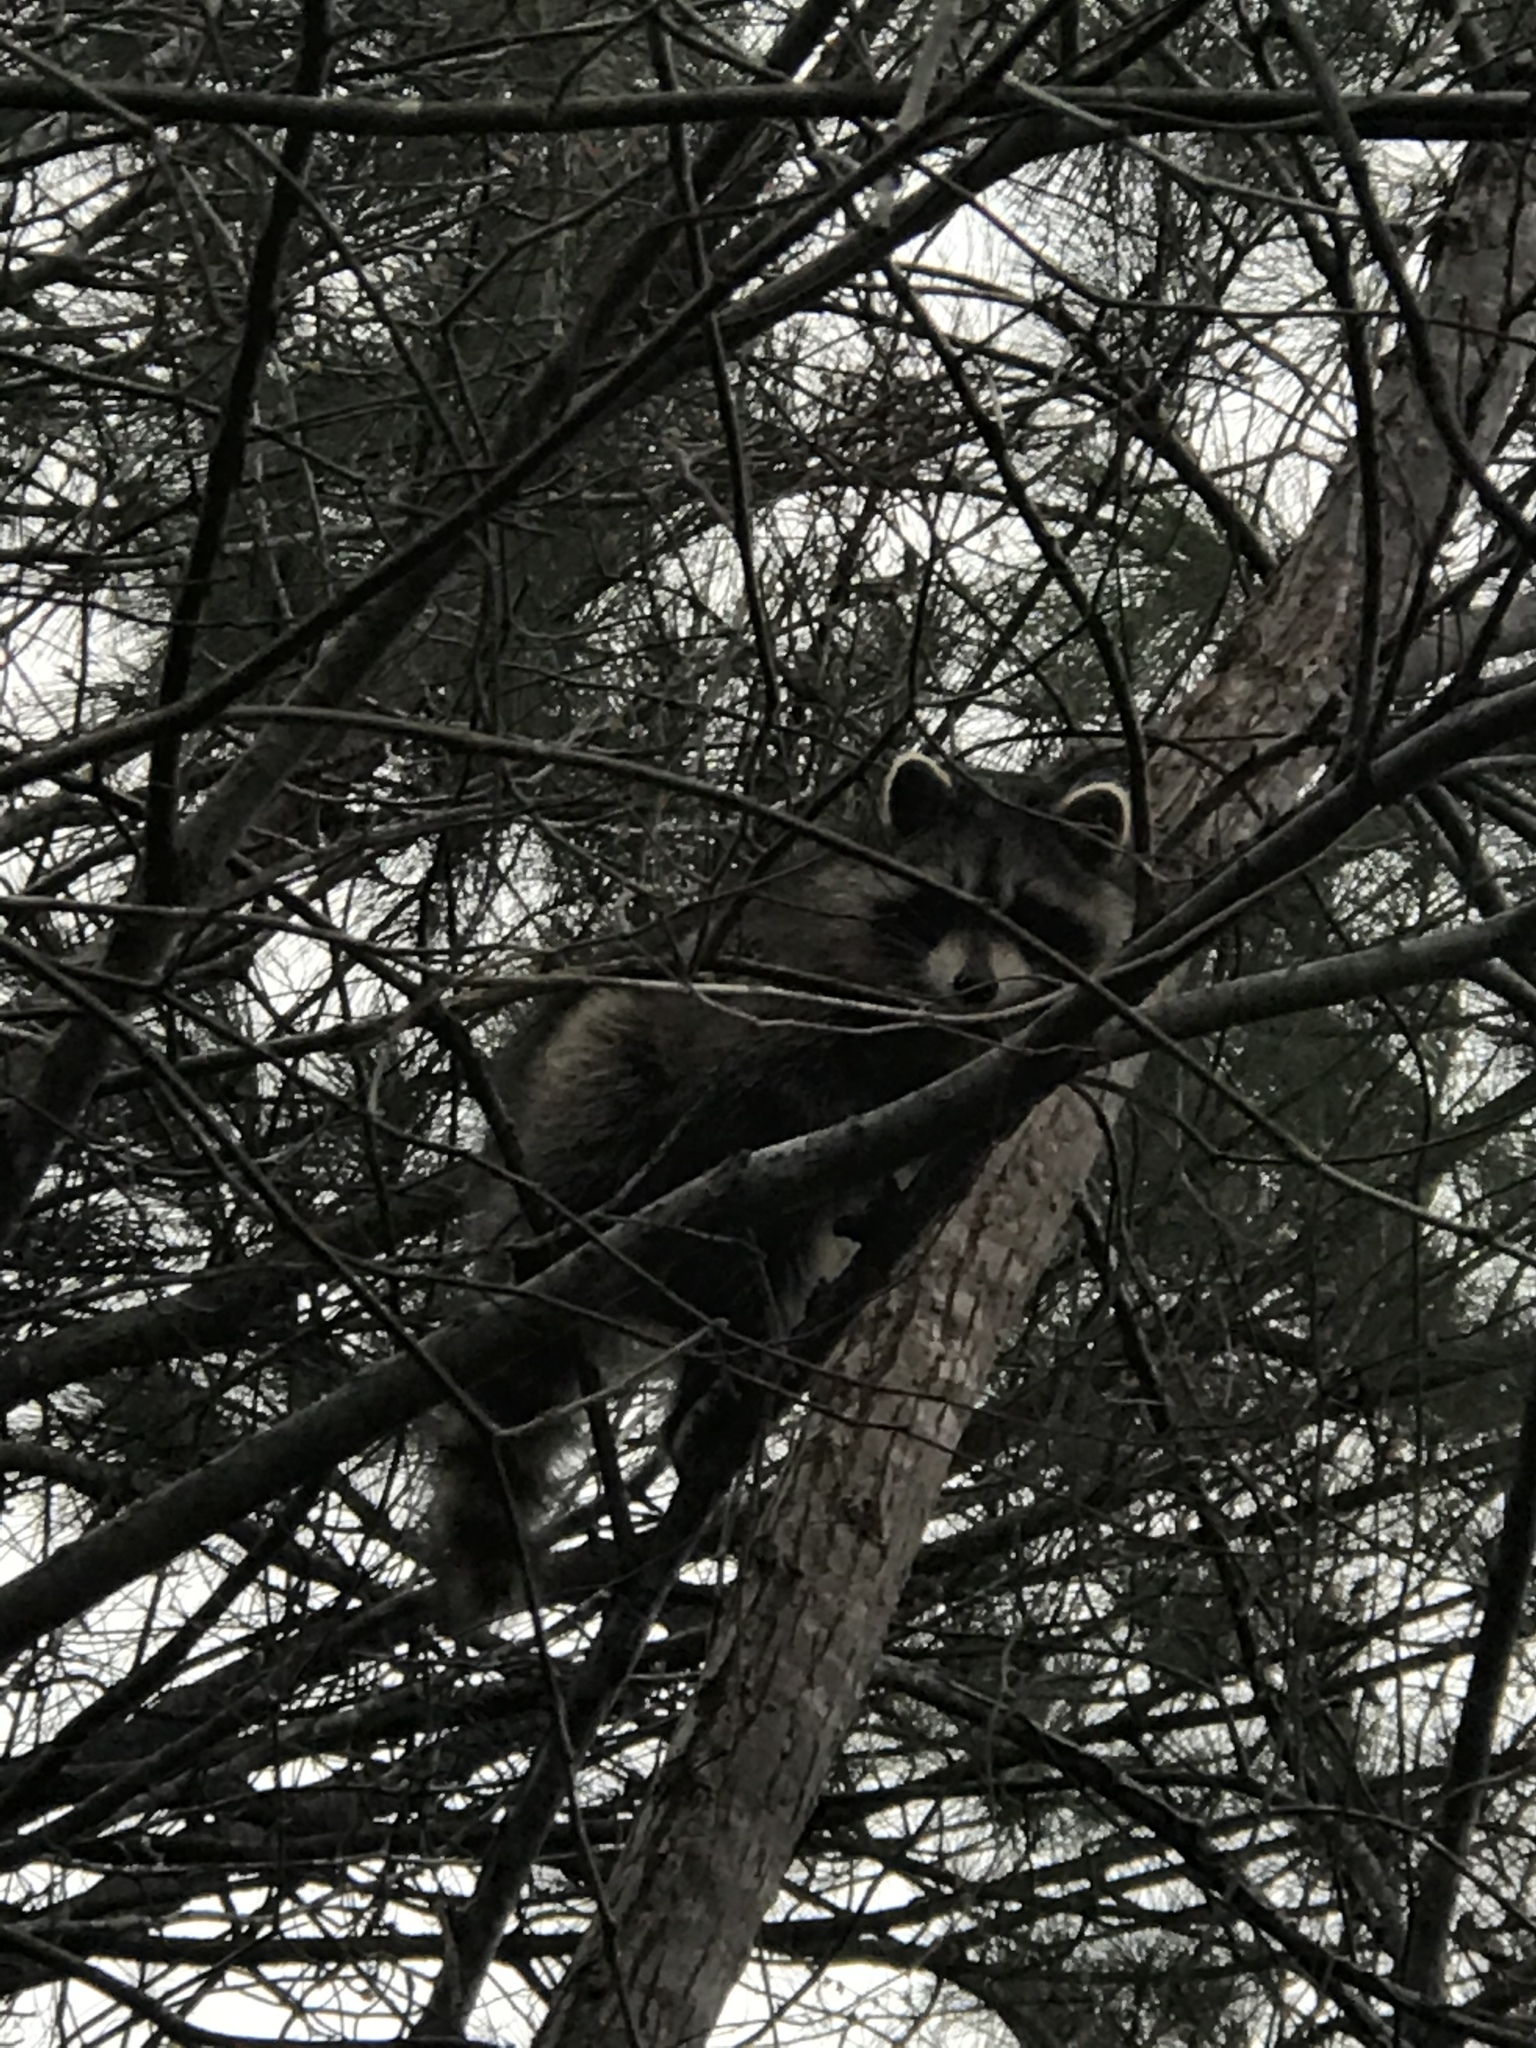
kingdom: Animalia
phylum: Chordata
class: Mammalia
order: Carnivora
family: Procyonidae
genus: Procyon
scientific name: Procyon lotor
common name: Raccoon
